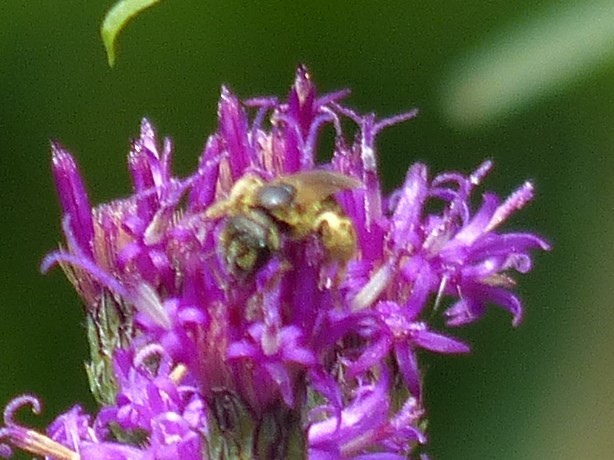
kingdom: Animalia
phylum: Arthropoda
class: Insecta
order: Hymenoptera
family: Halictidae
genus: Halictus
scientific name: Halictus ligatus
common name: Ligated furrow bee
